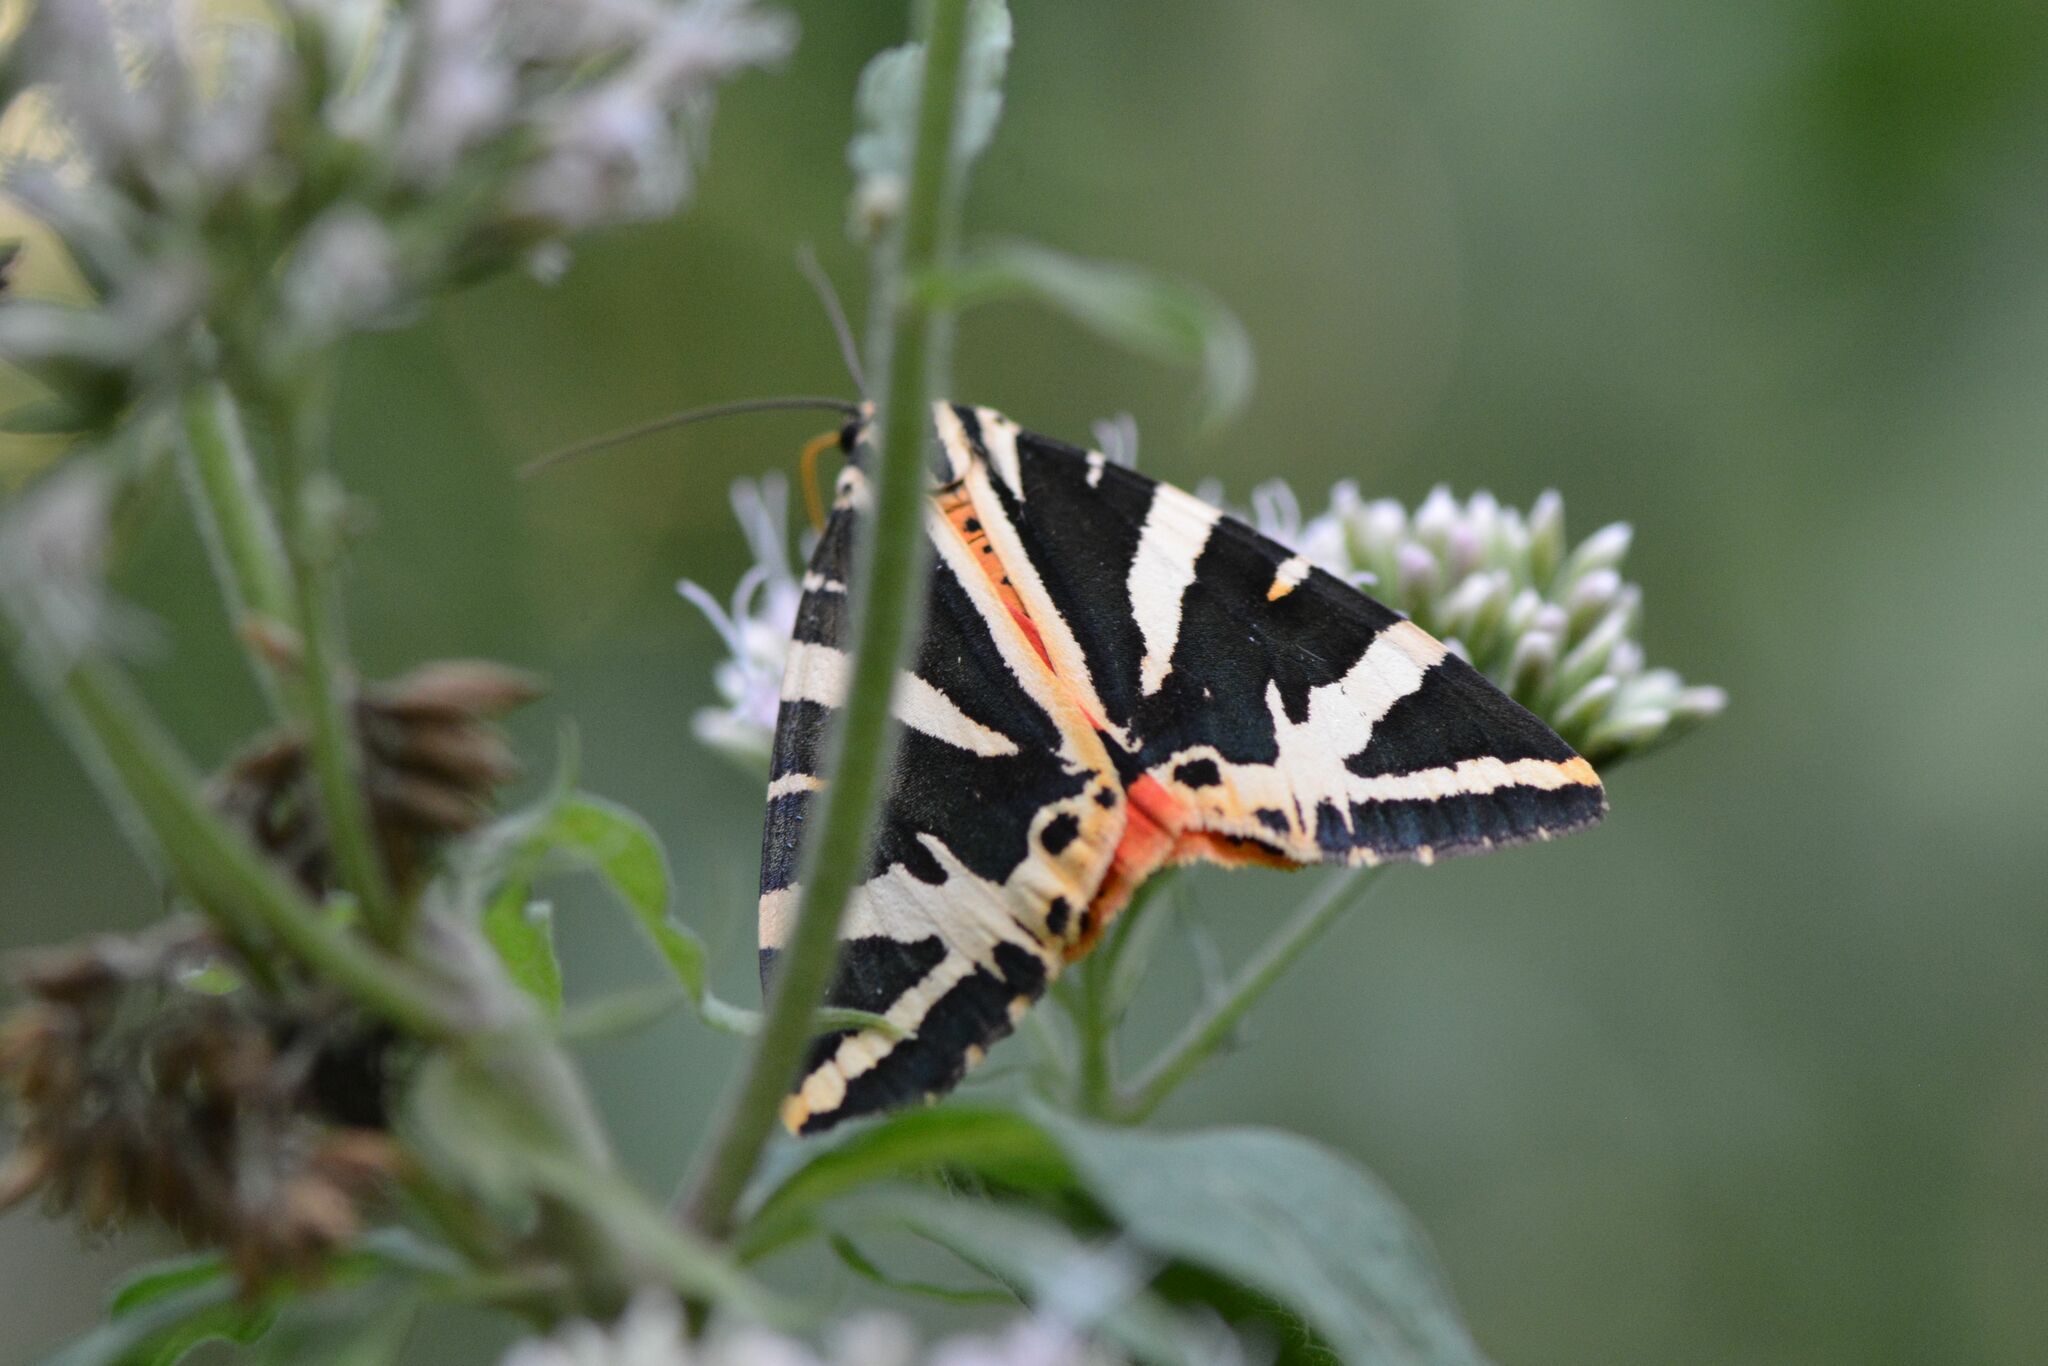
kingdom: Animalia
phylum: Arthropoda
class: Insecta
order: Lepidoptera
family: Erebidae
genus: Euplagia
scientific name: Euplagia quadripunctaria
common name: Jersey tiger
